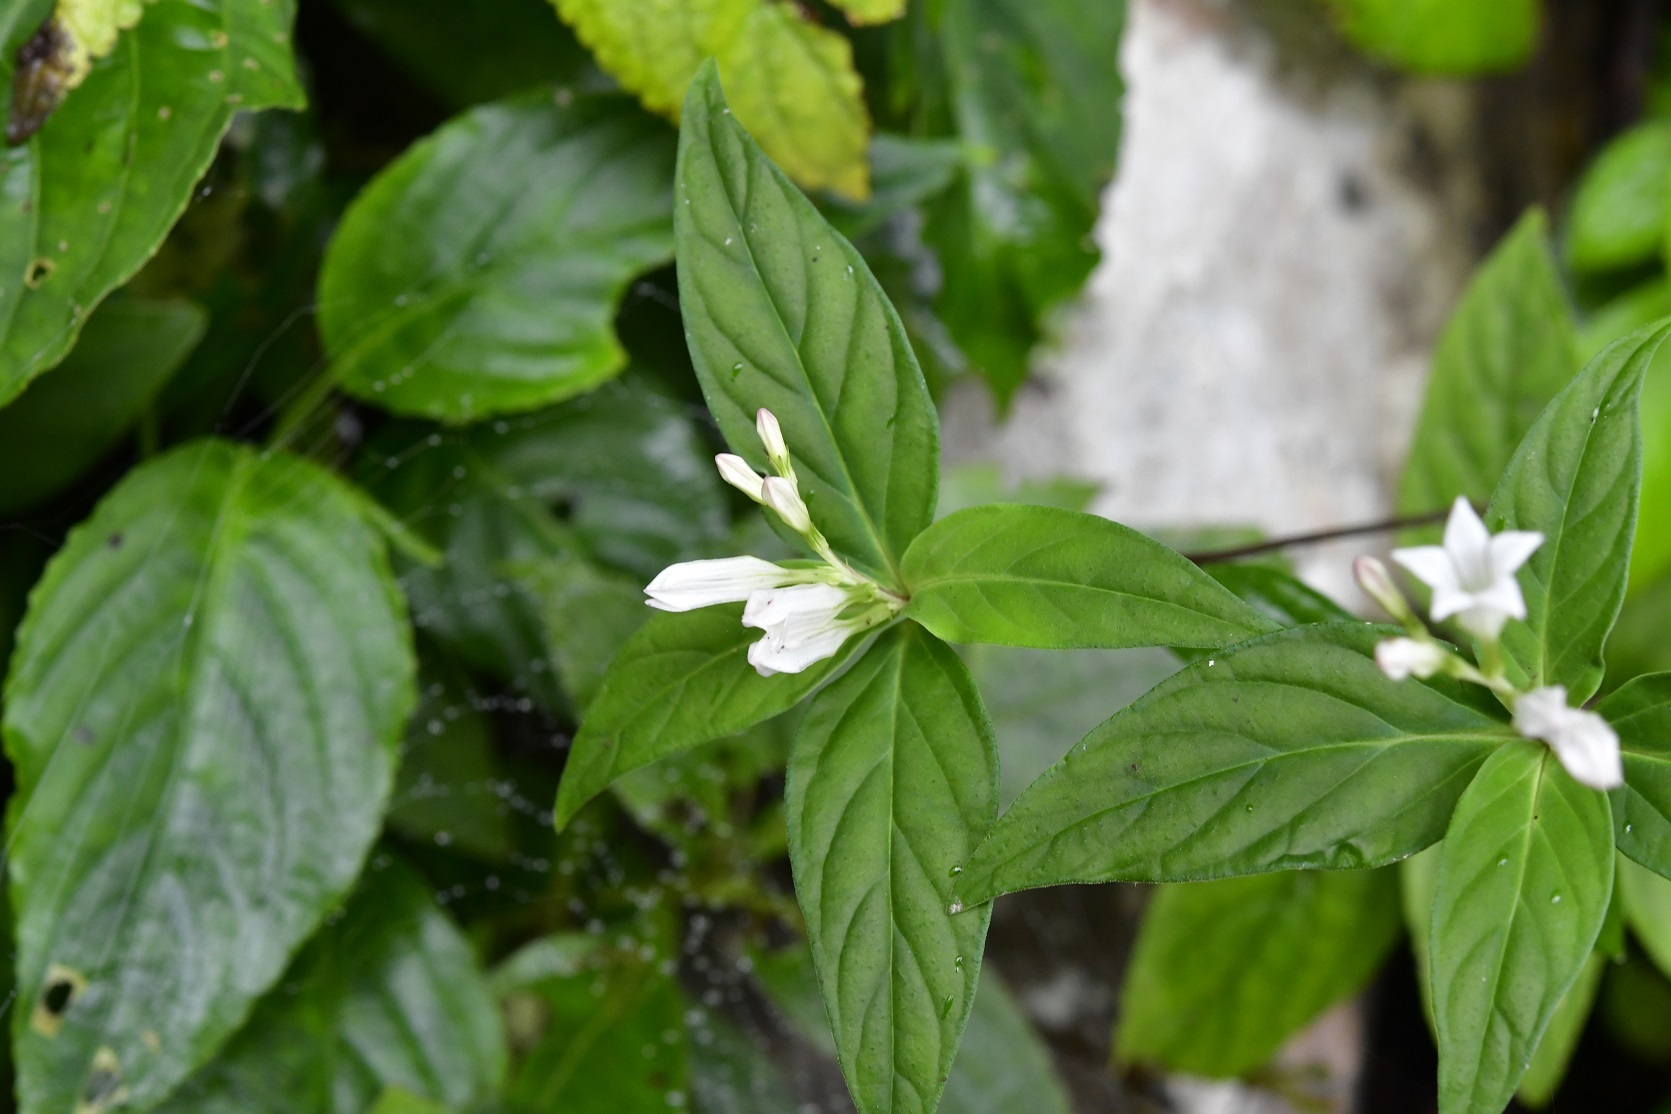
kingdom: Plantae
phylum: Tracheophyta
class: Magnoliopsida
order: Gentianales
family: Loganiaceae
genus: Spigelia
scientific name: Spigelia humboldtiana
